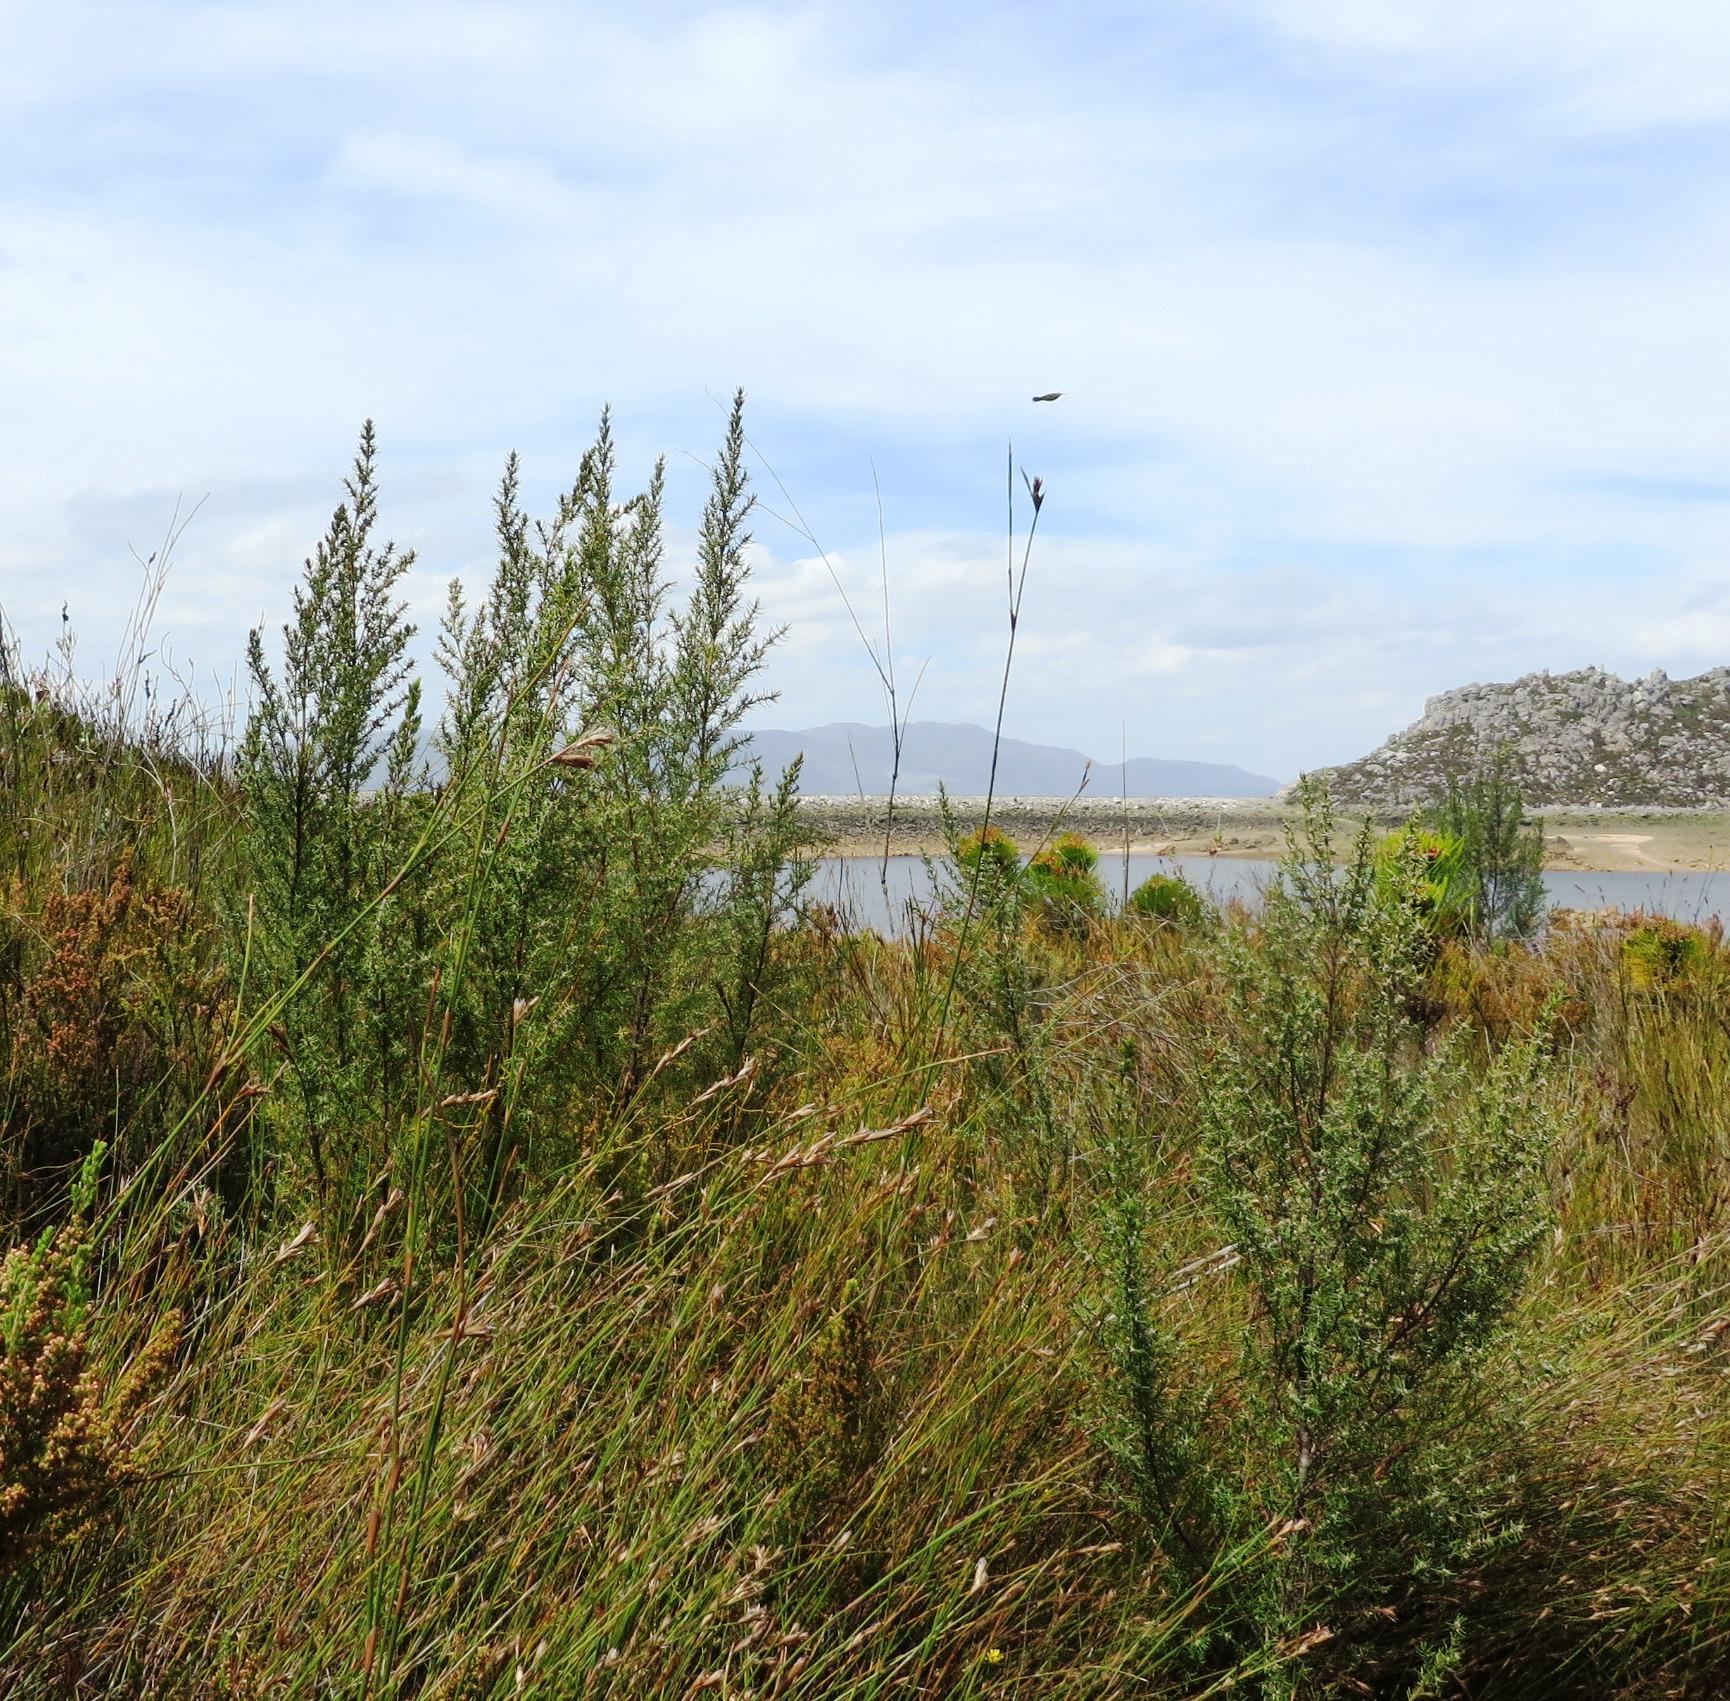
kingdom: Plantae
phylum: Tracheophyta
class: Magnoliopsida
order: Cornales
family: Grubbiaceae
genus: Grubbia
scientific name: Grubbia rosmarinifolia
